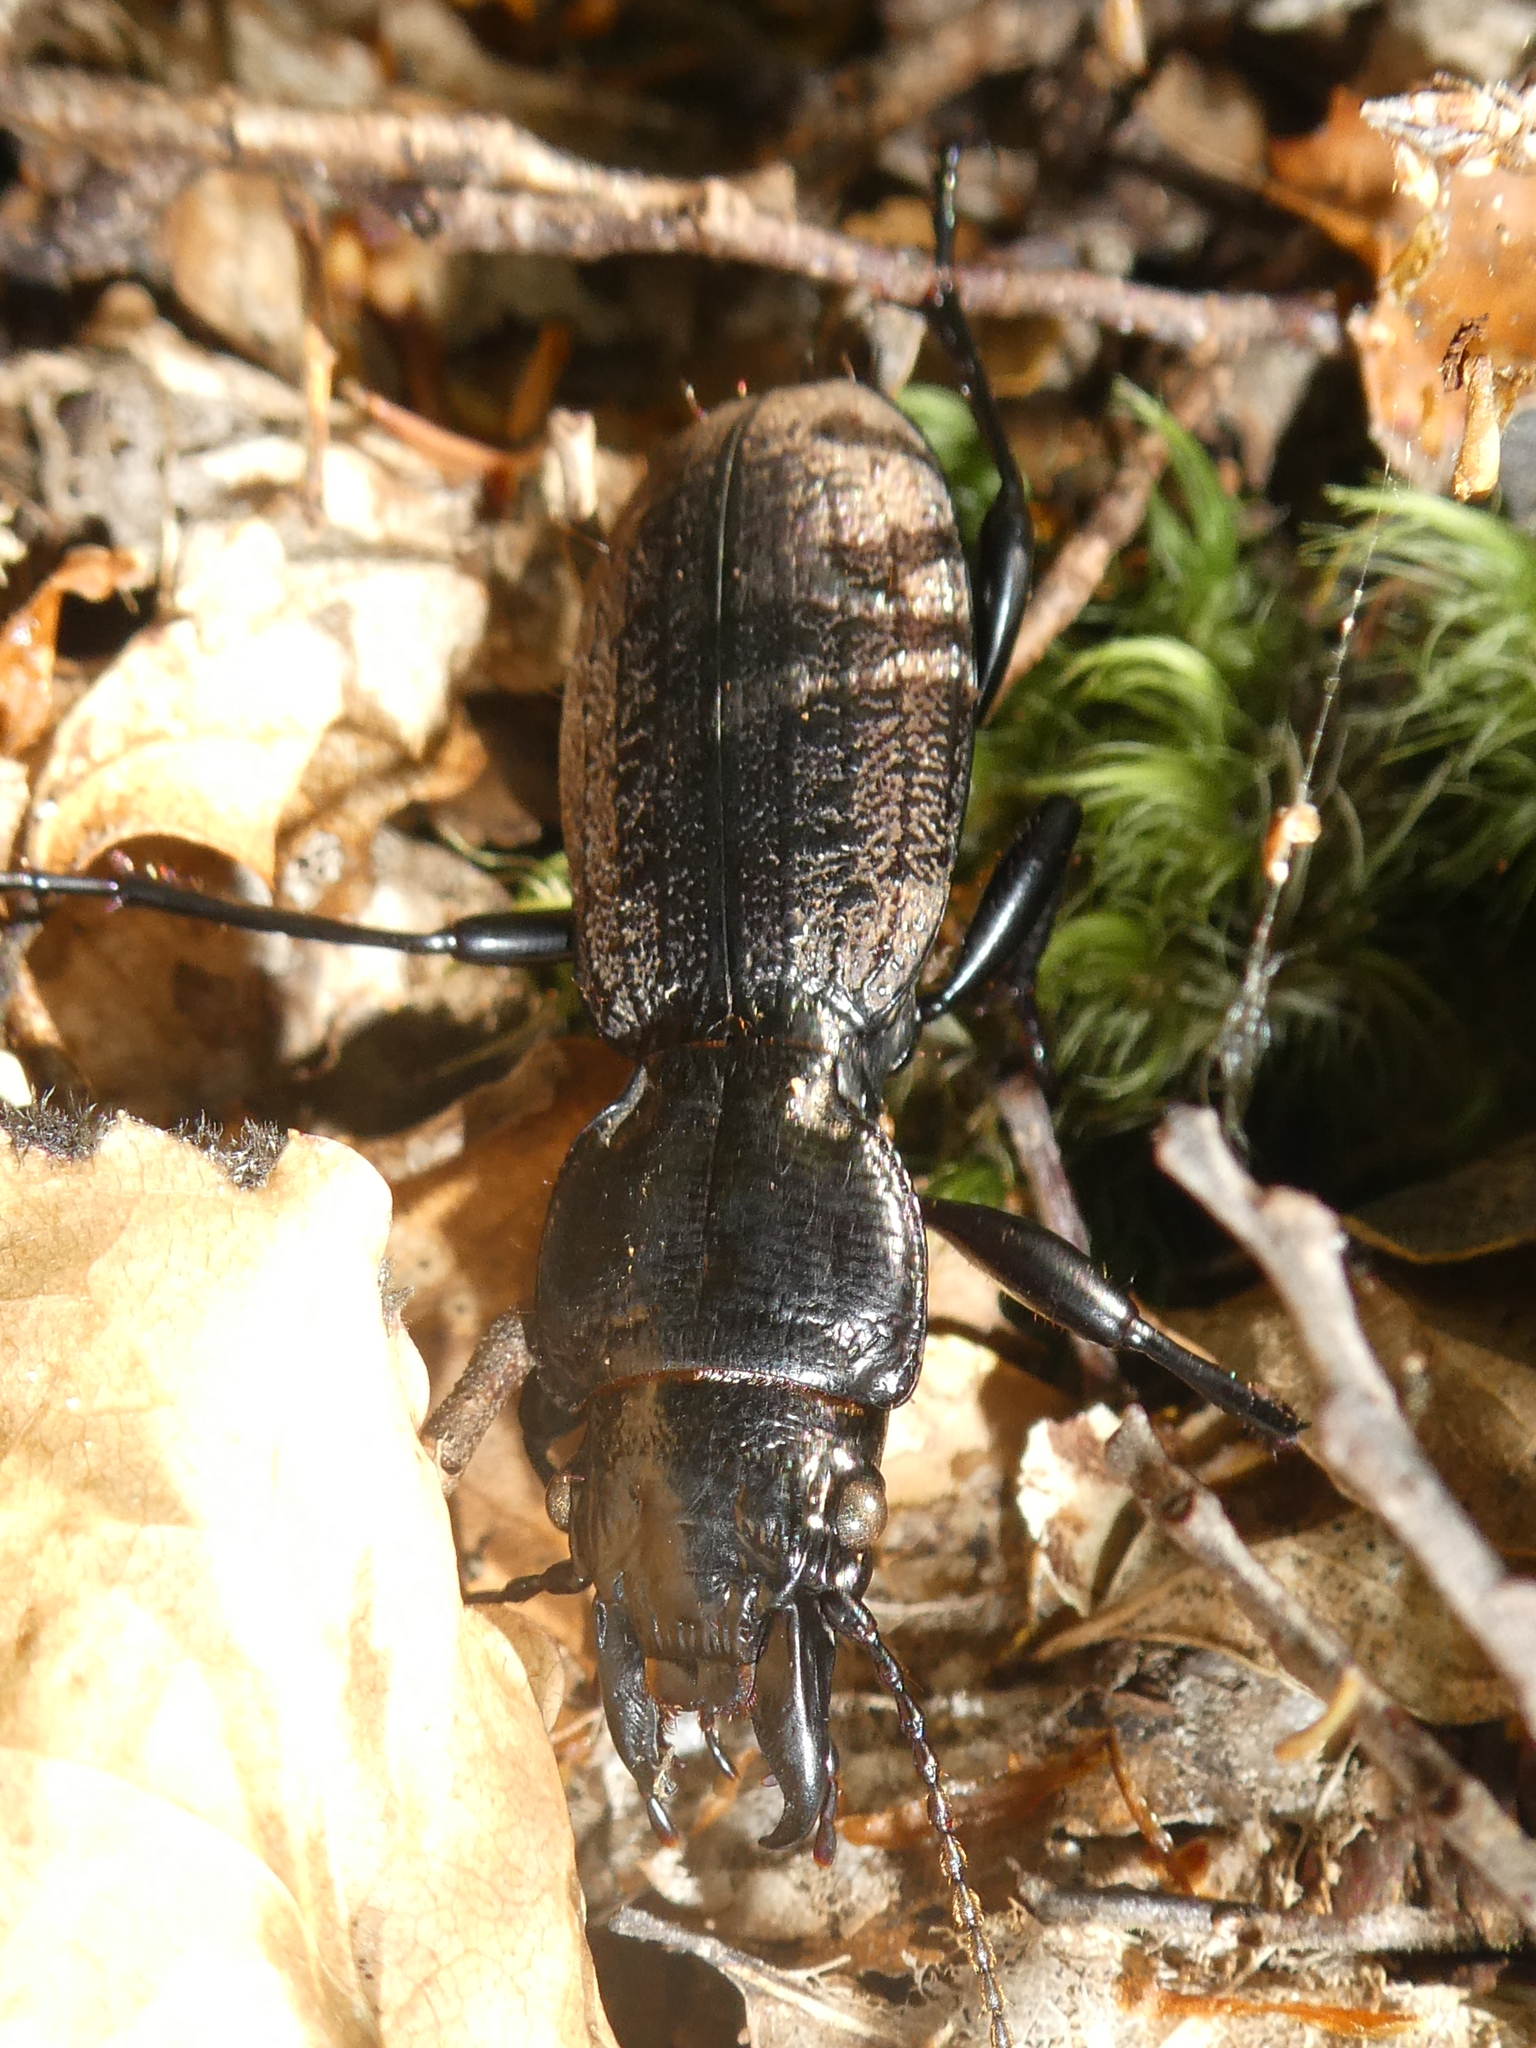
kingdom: Animalia
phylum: Arthropoda
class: Insecta
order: Coleoptera
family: Carabidae
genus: Mecodema
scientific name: Mecodema costellum
